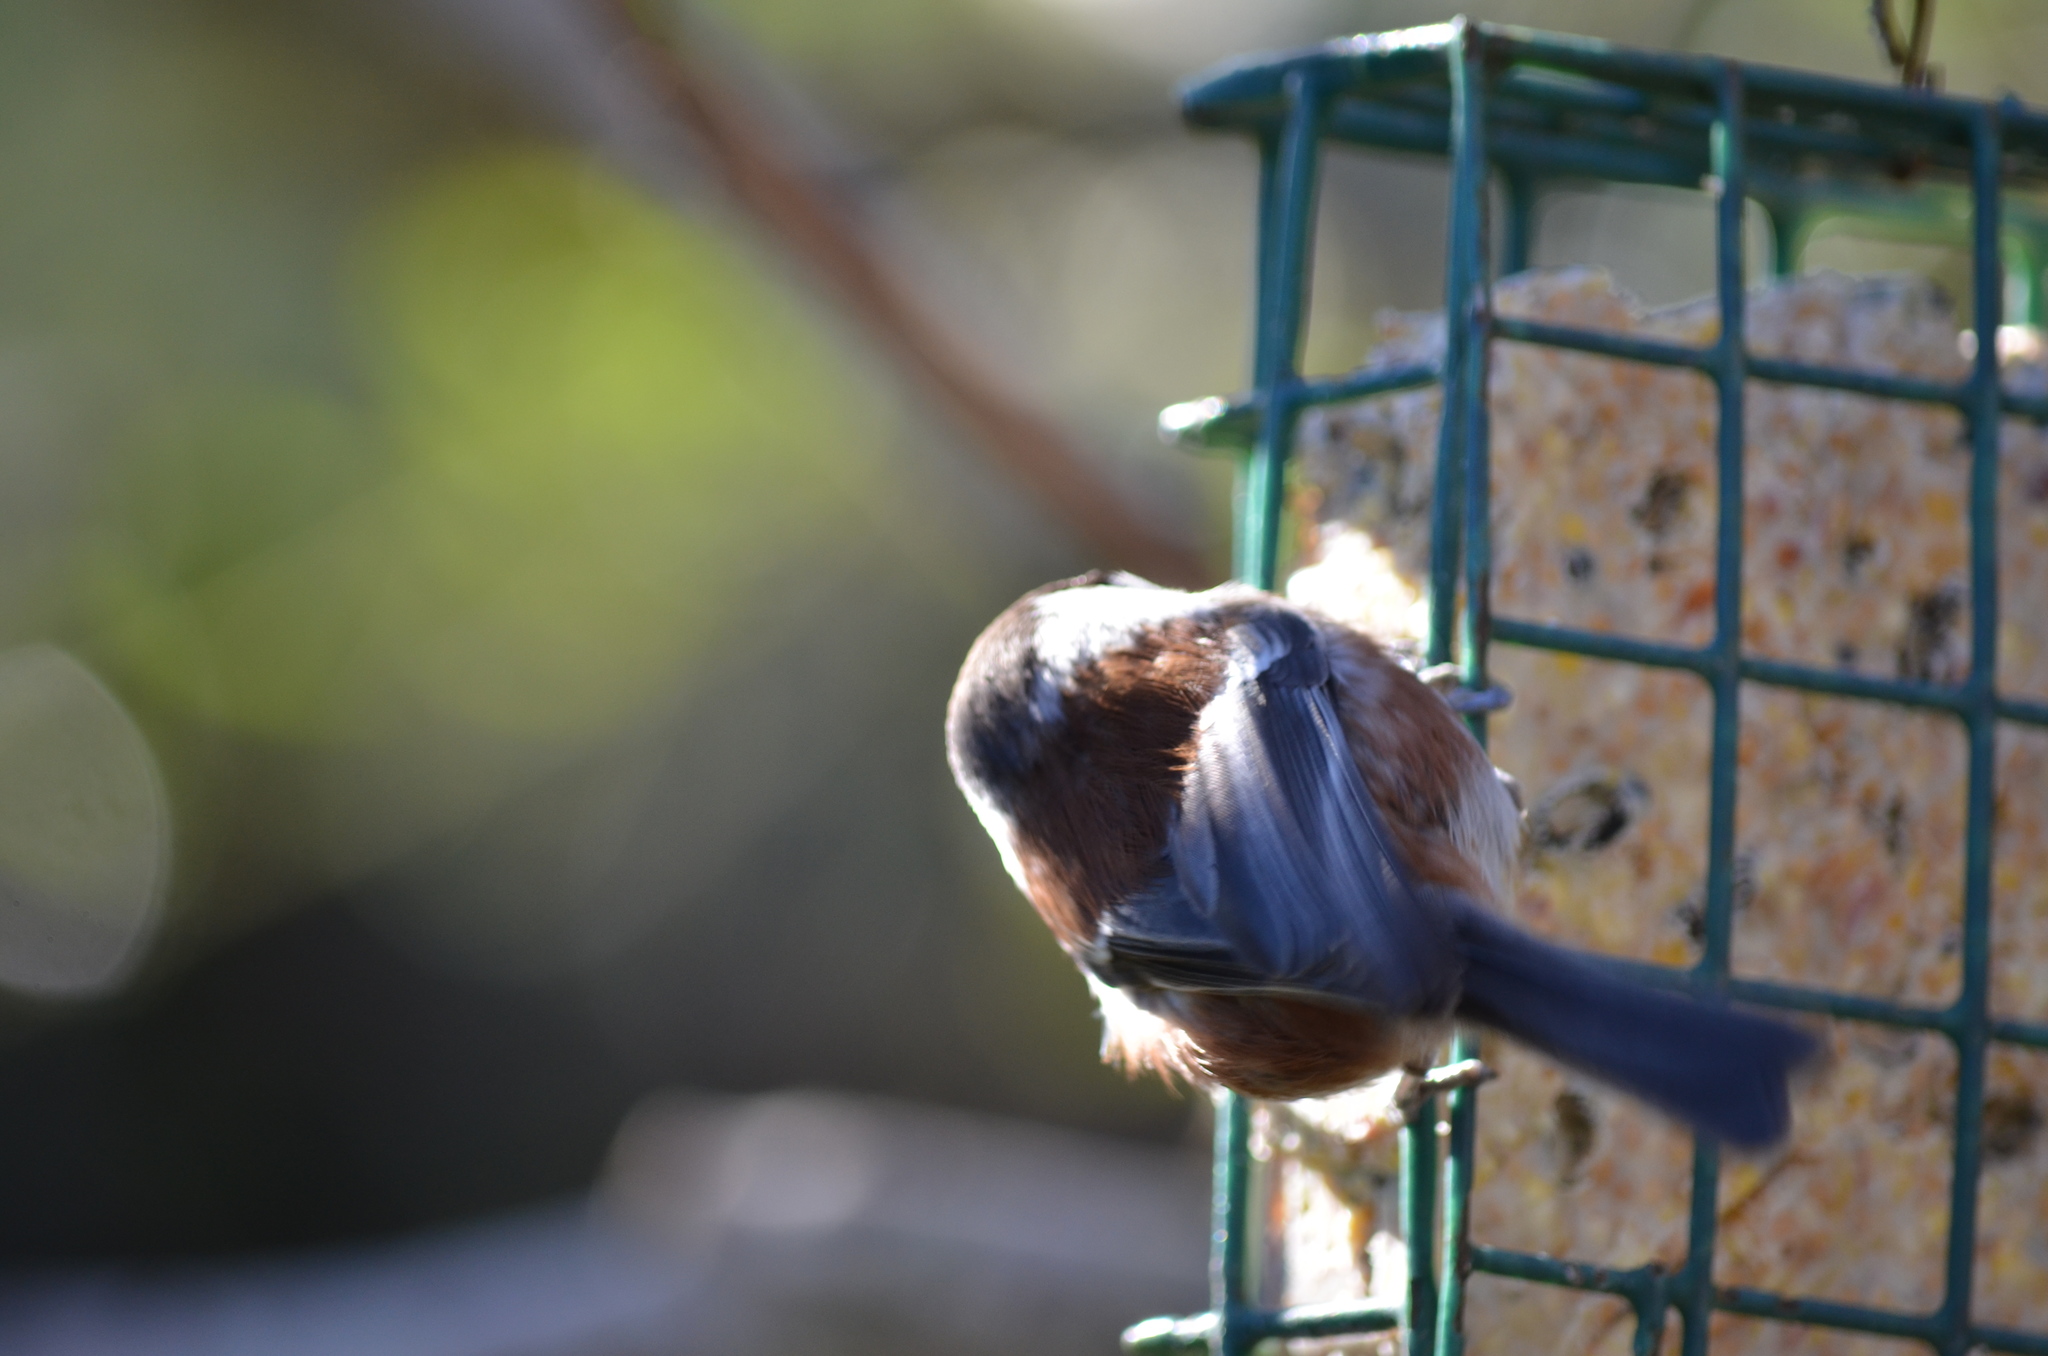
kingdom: Animalia
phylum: Chordata
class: Aves
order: Passeriformes
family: Paridae
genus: Poecile
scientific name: Poecile rufescens
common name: Chestnut-backed chickadee
